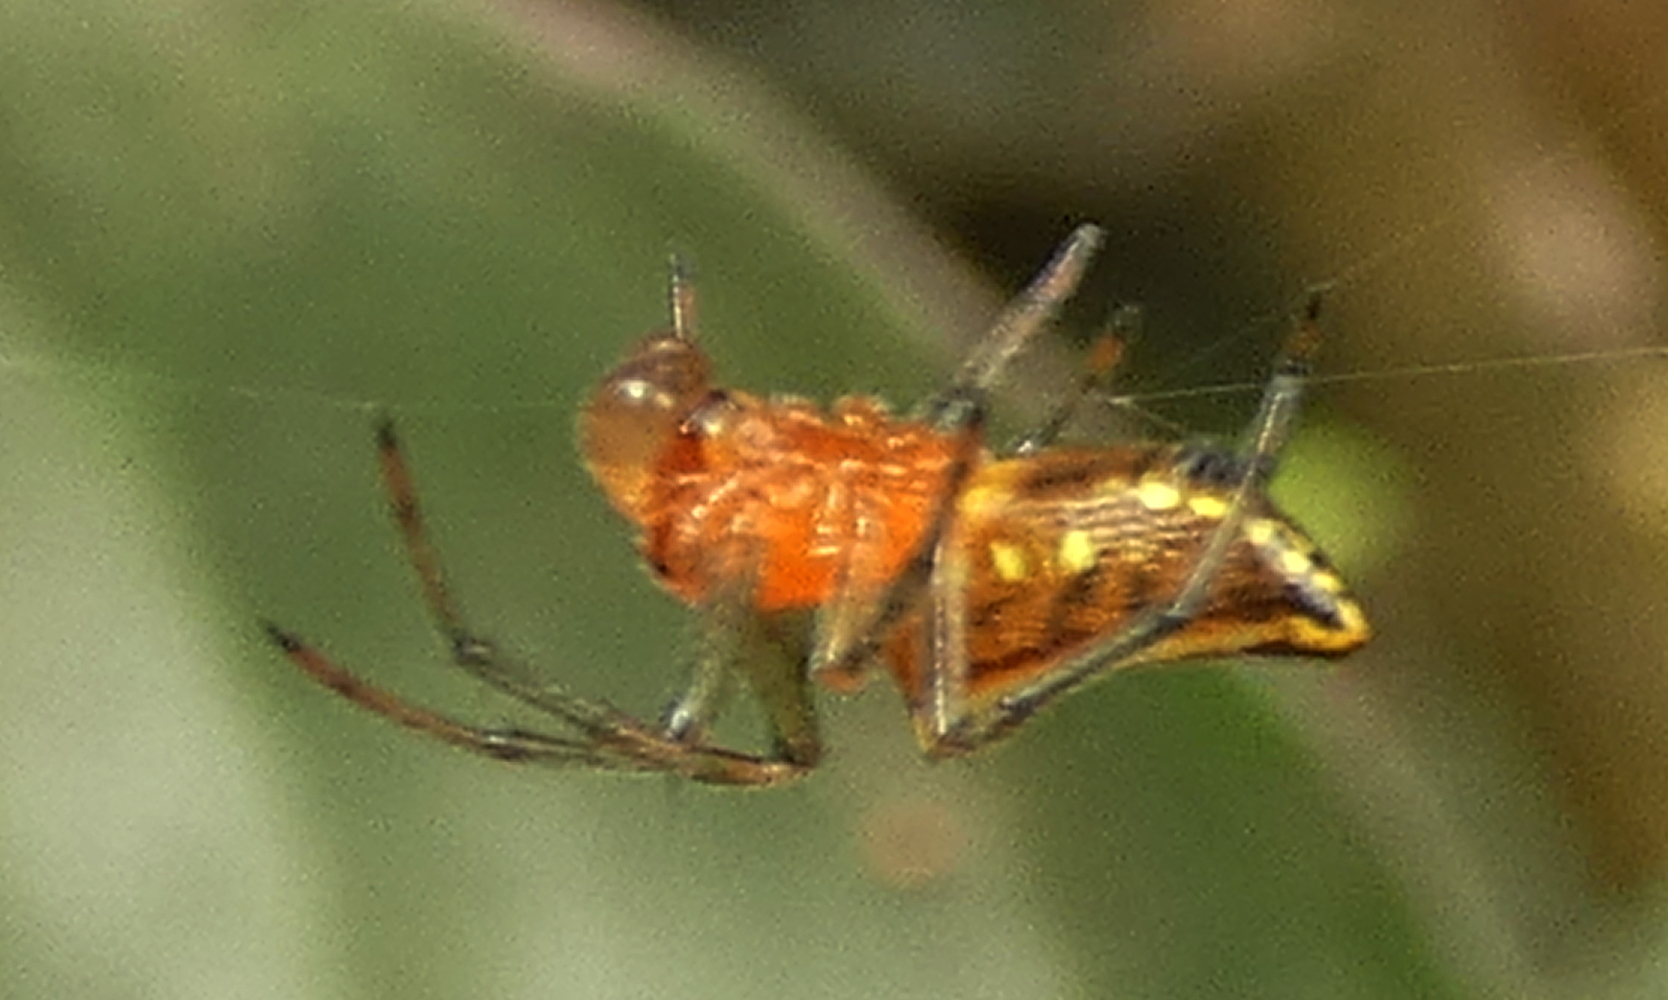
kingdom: Animalia
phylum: Arthropoda
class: Arachnida
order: Araneae
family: Araneidae
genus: Alpaida
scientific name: Alpaida bicornuta
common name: Orb weavers
